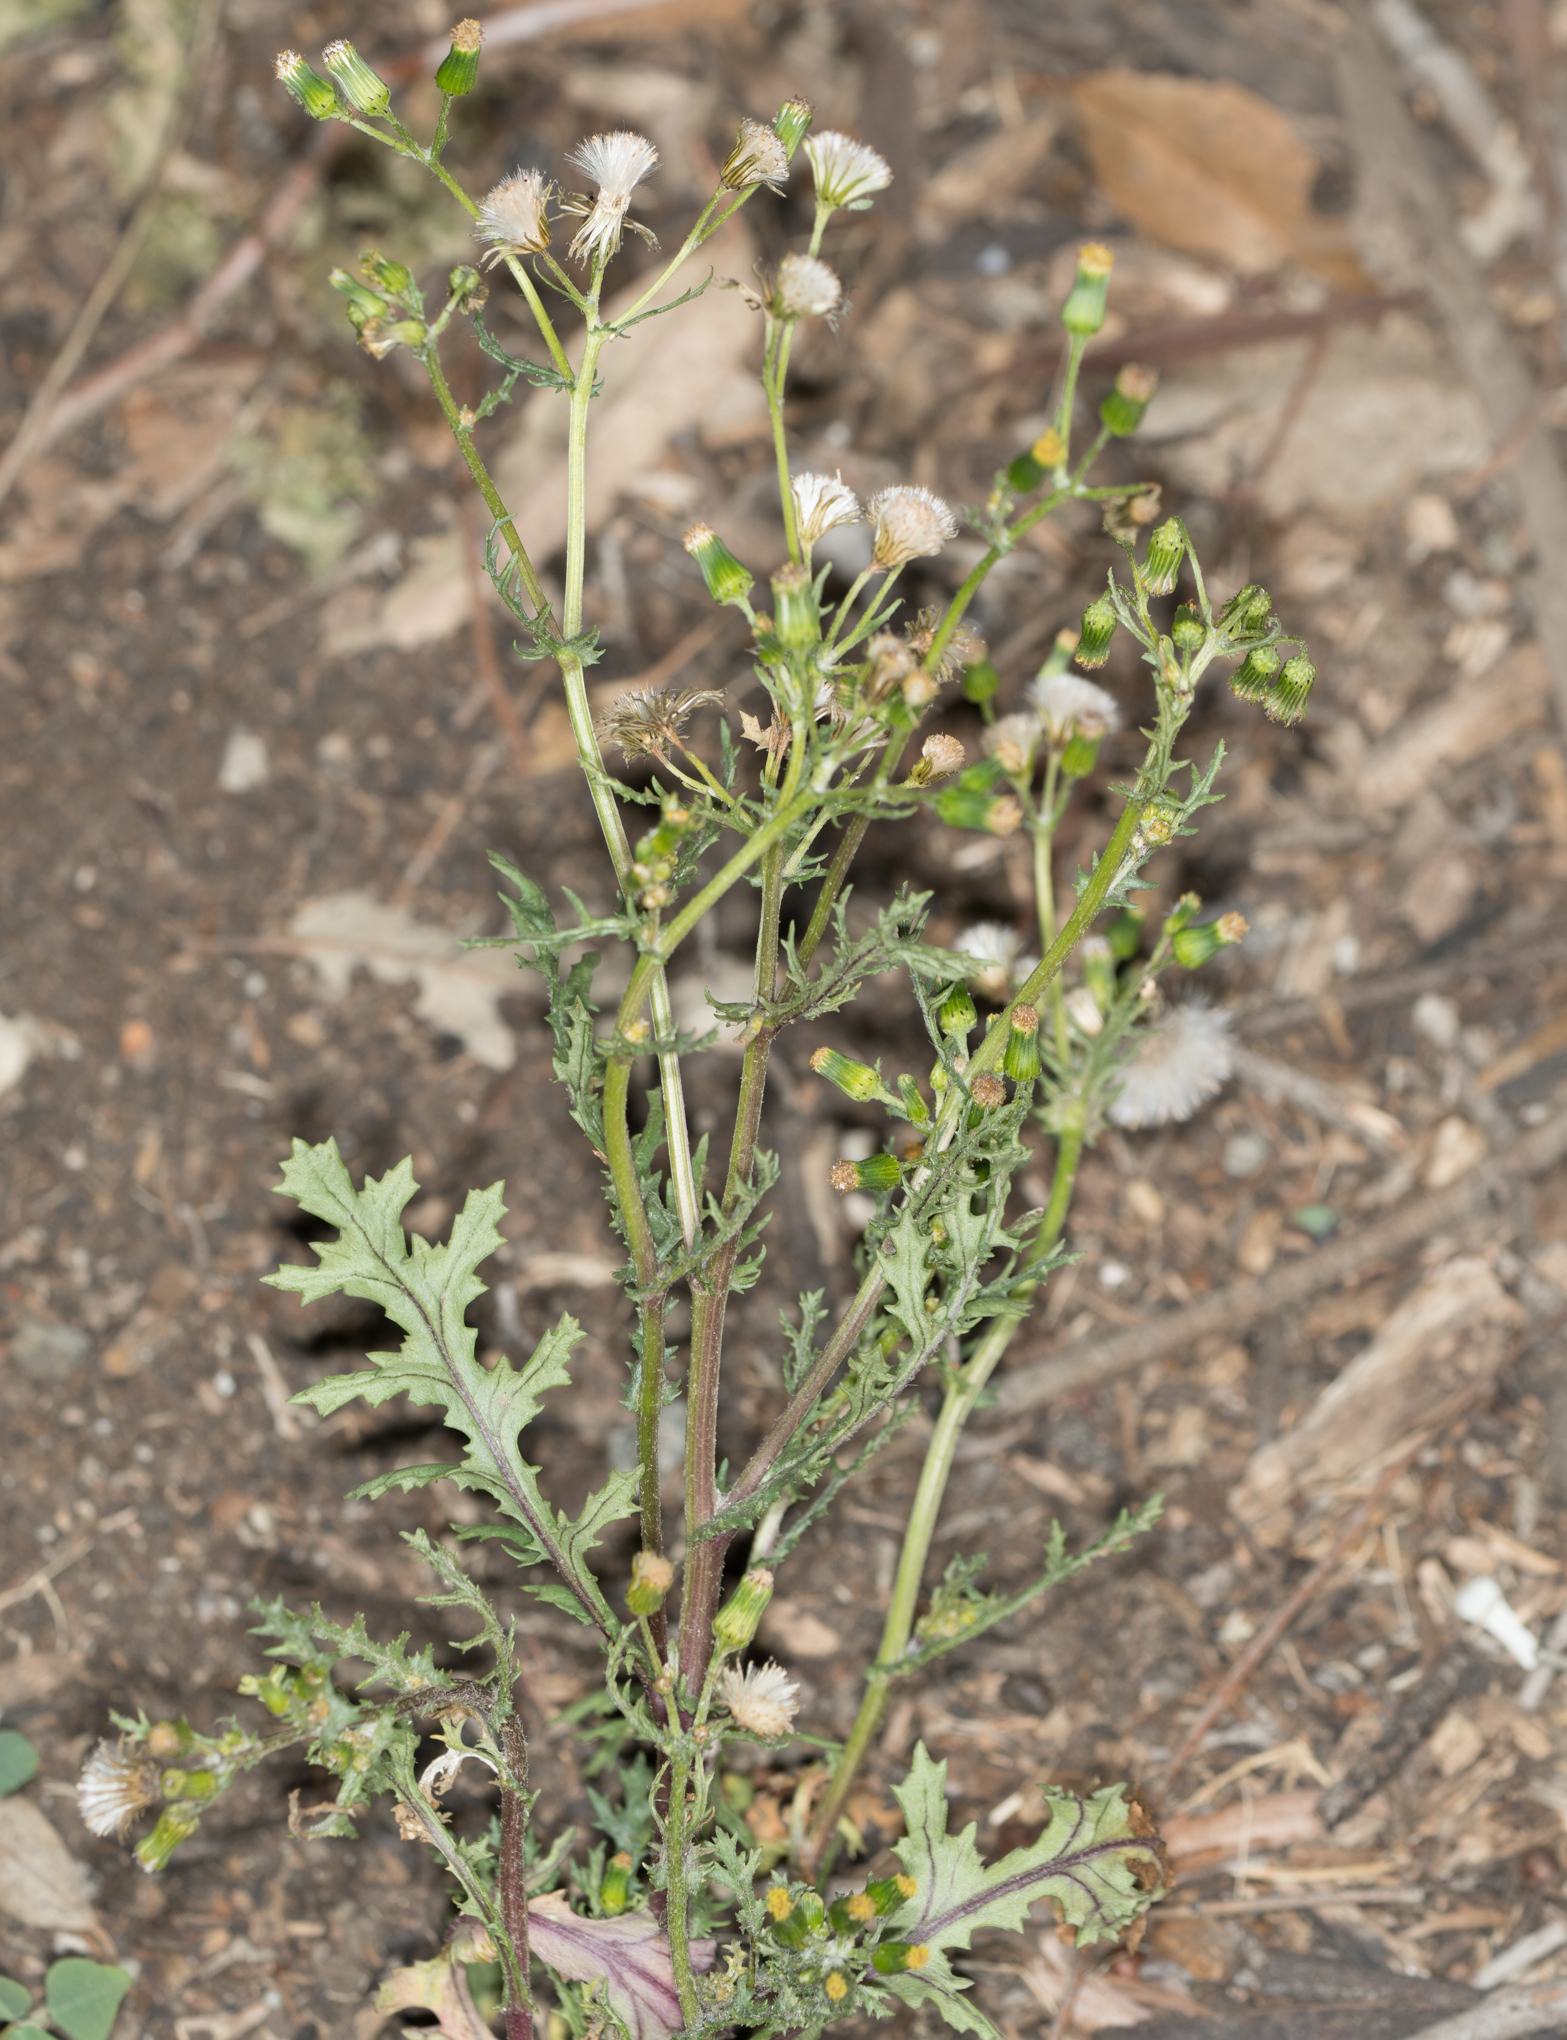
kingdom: Plantae
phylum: Tracheophyta
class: Magnoliopsida
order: Asterales
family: Asteraceae
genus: Senecio
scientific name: Senecio vulgaris
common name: Old-man-in-the-spring
